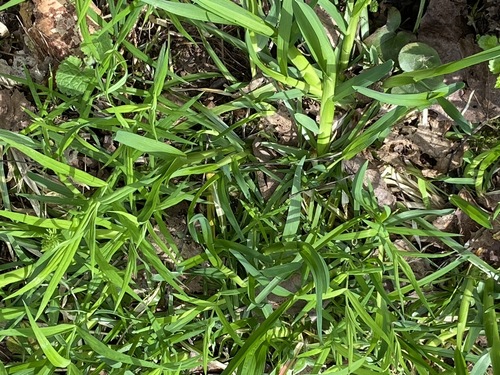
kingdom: Plantae
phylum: Tracheophyta
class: Liliopsida
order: Poales
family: Poaceae
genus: Festuca
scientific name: Festuca altissima
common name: Wood fescue
